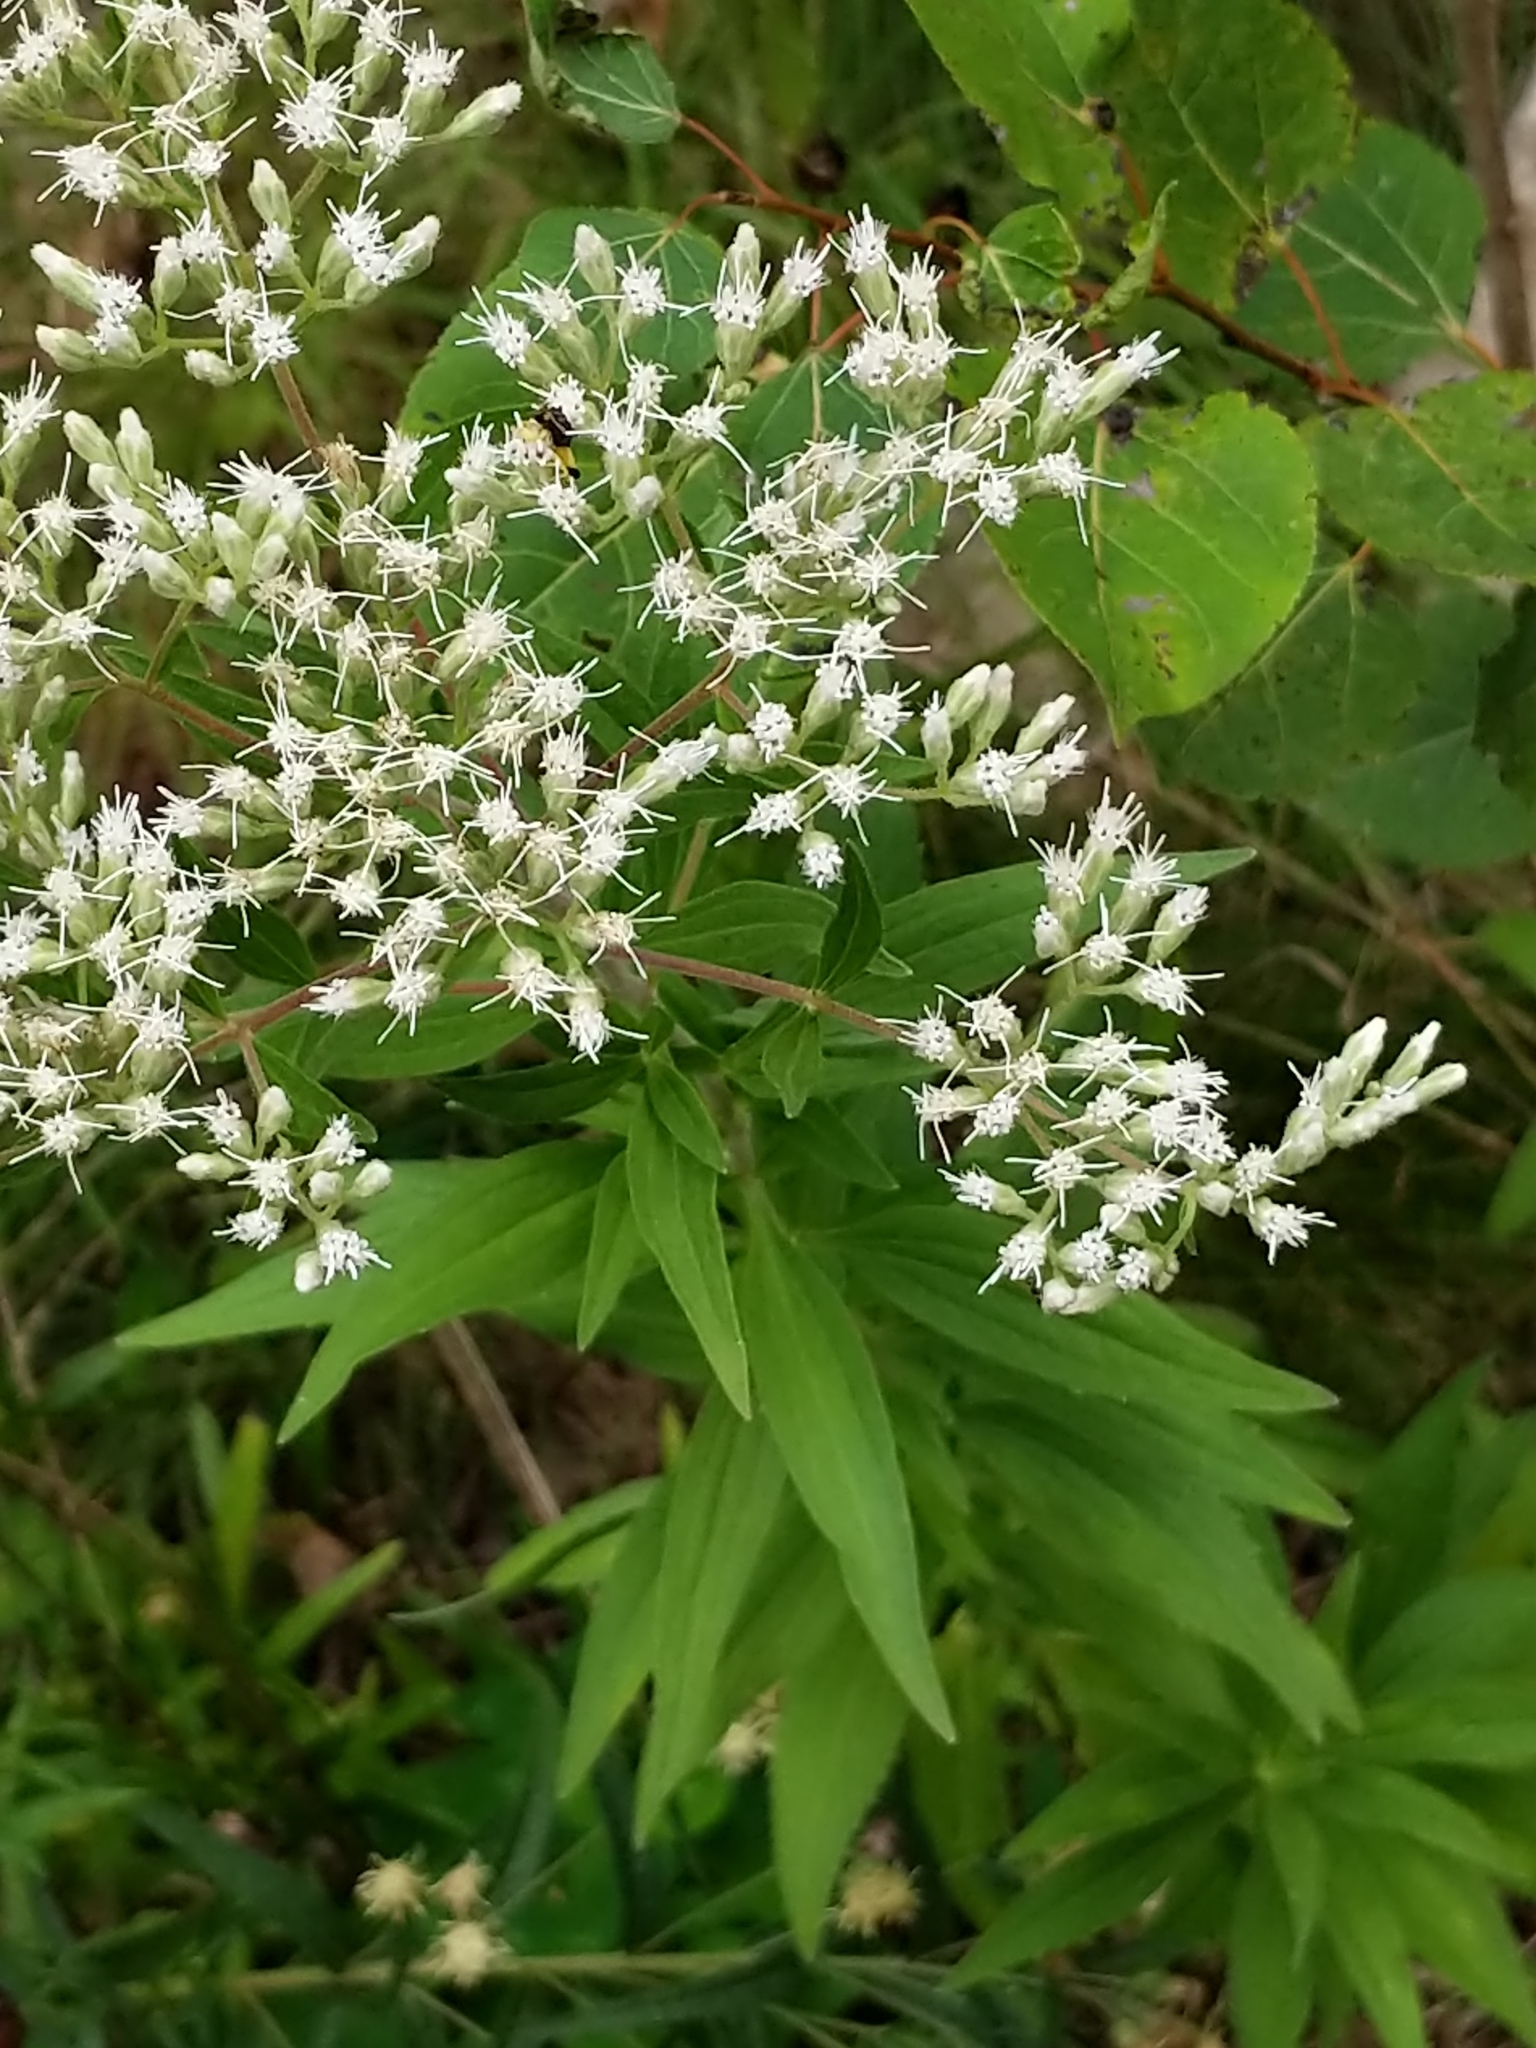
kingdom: Plantae
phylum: Tracheophyta
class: Magnoliopsida
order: Asterales
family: Asteraceae
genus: Eupatorium
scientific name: Eupatorium altissimum
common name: Tall thoroughwort
